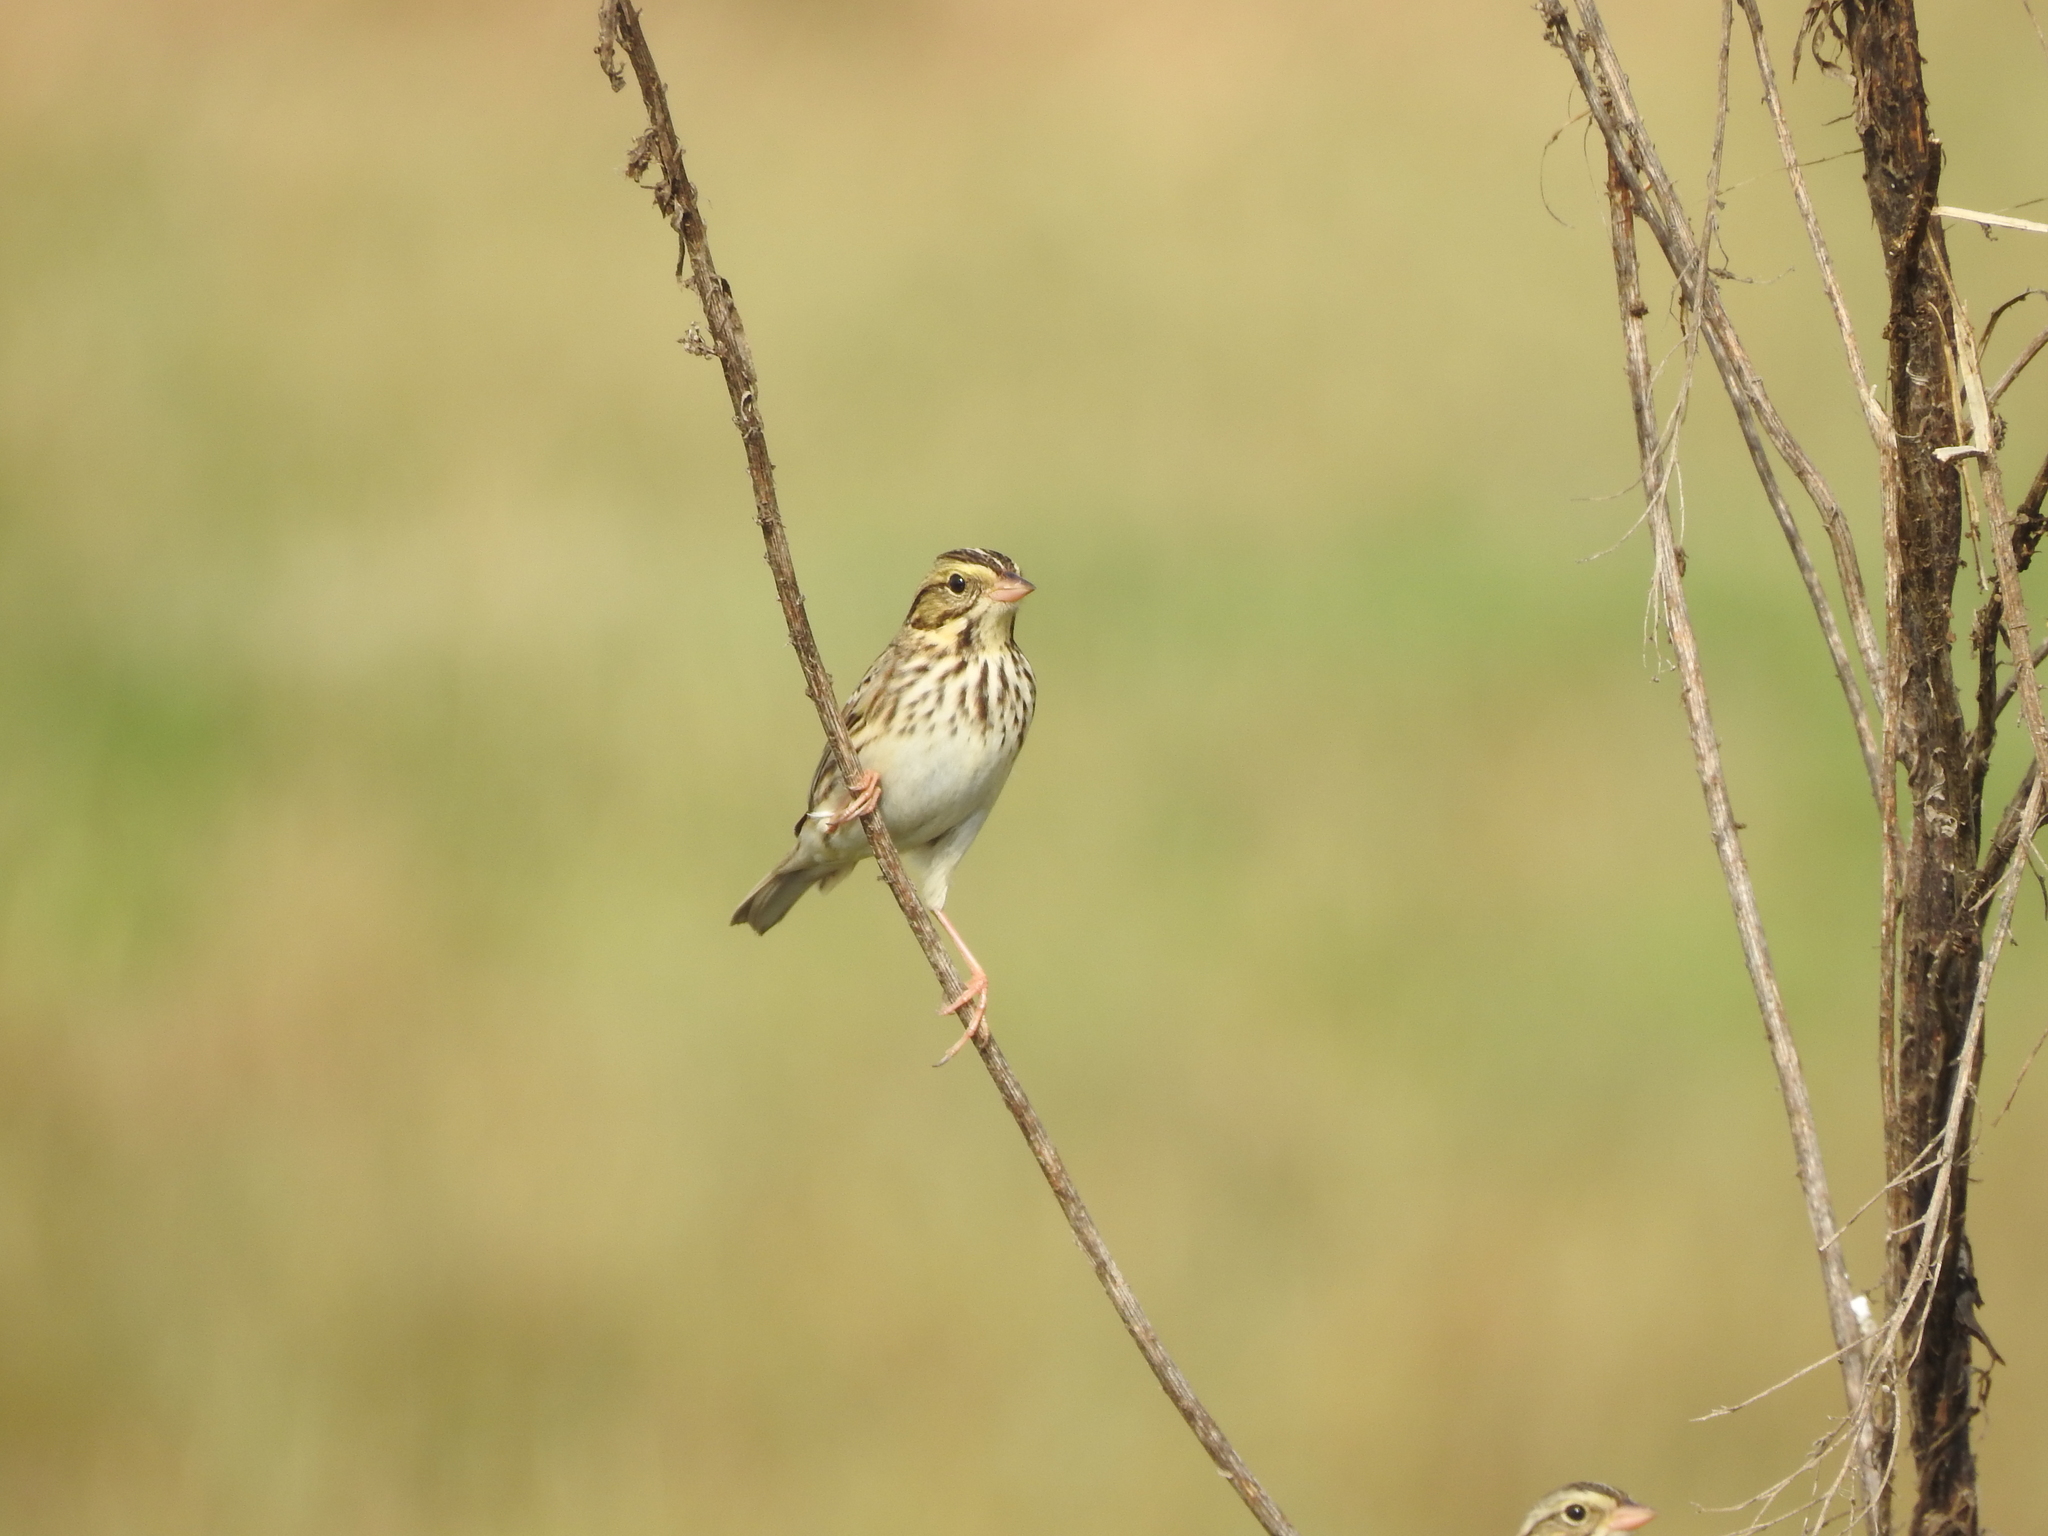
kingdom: Animalia
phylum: Chordata
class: Aves
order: Passeriformes
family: Passerellidae
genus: Passerculus
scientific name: Passerculus sandwichensis
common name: Savannah sparrow
